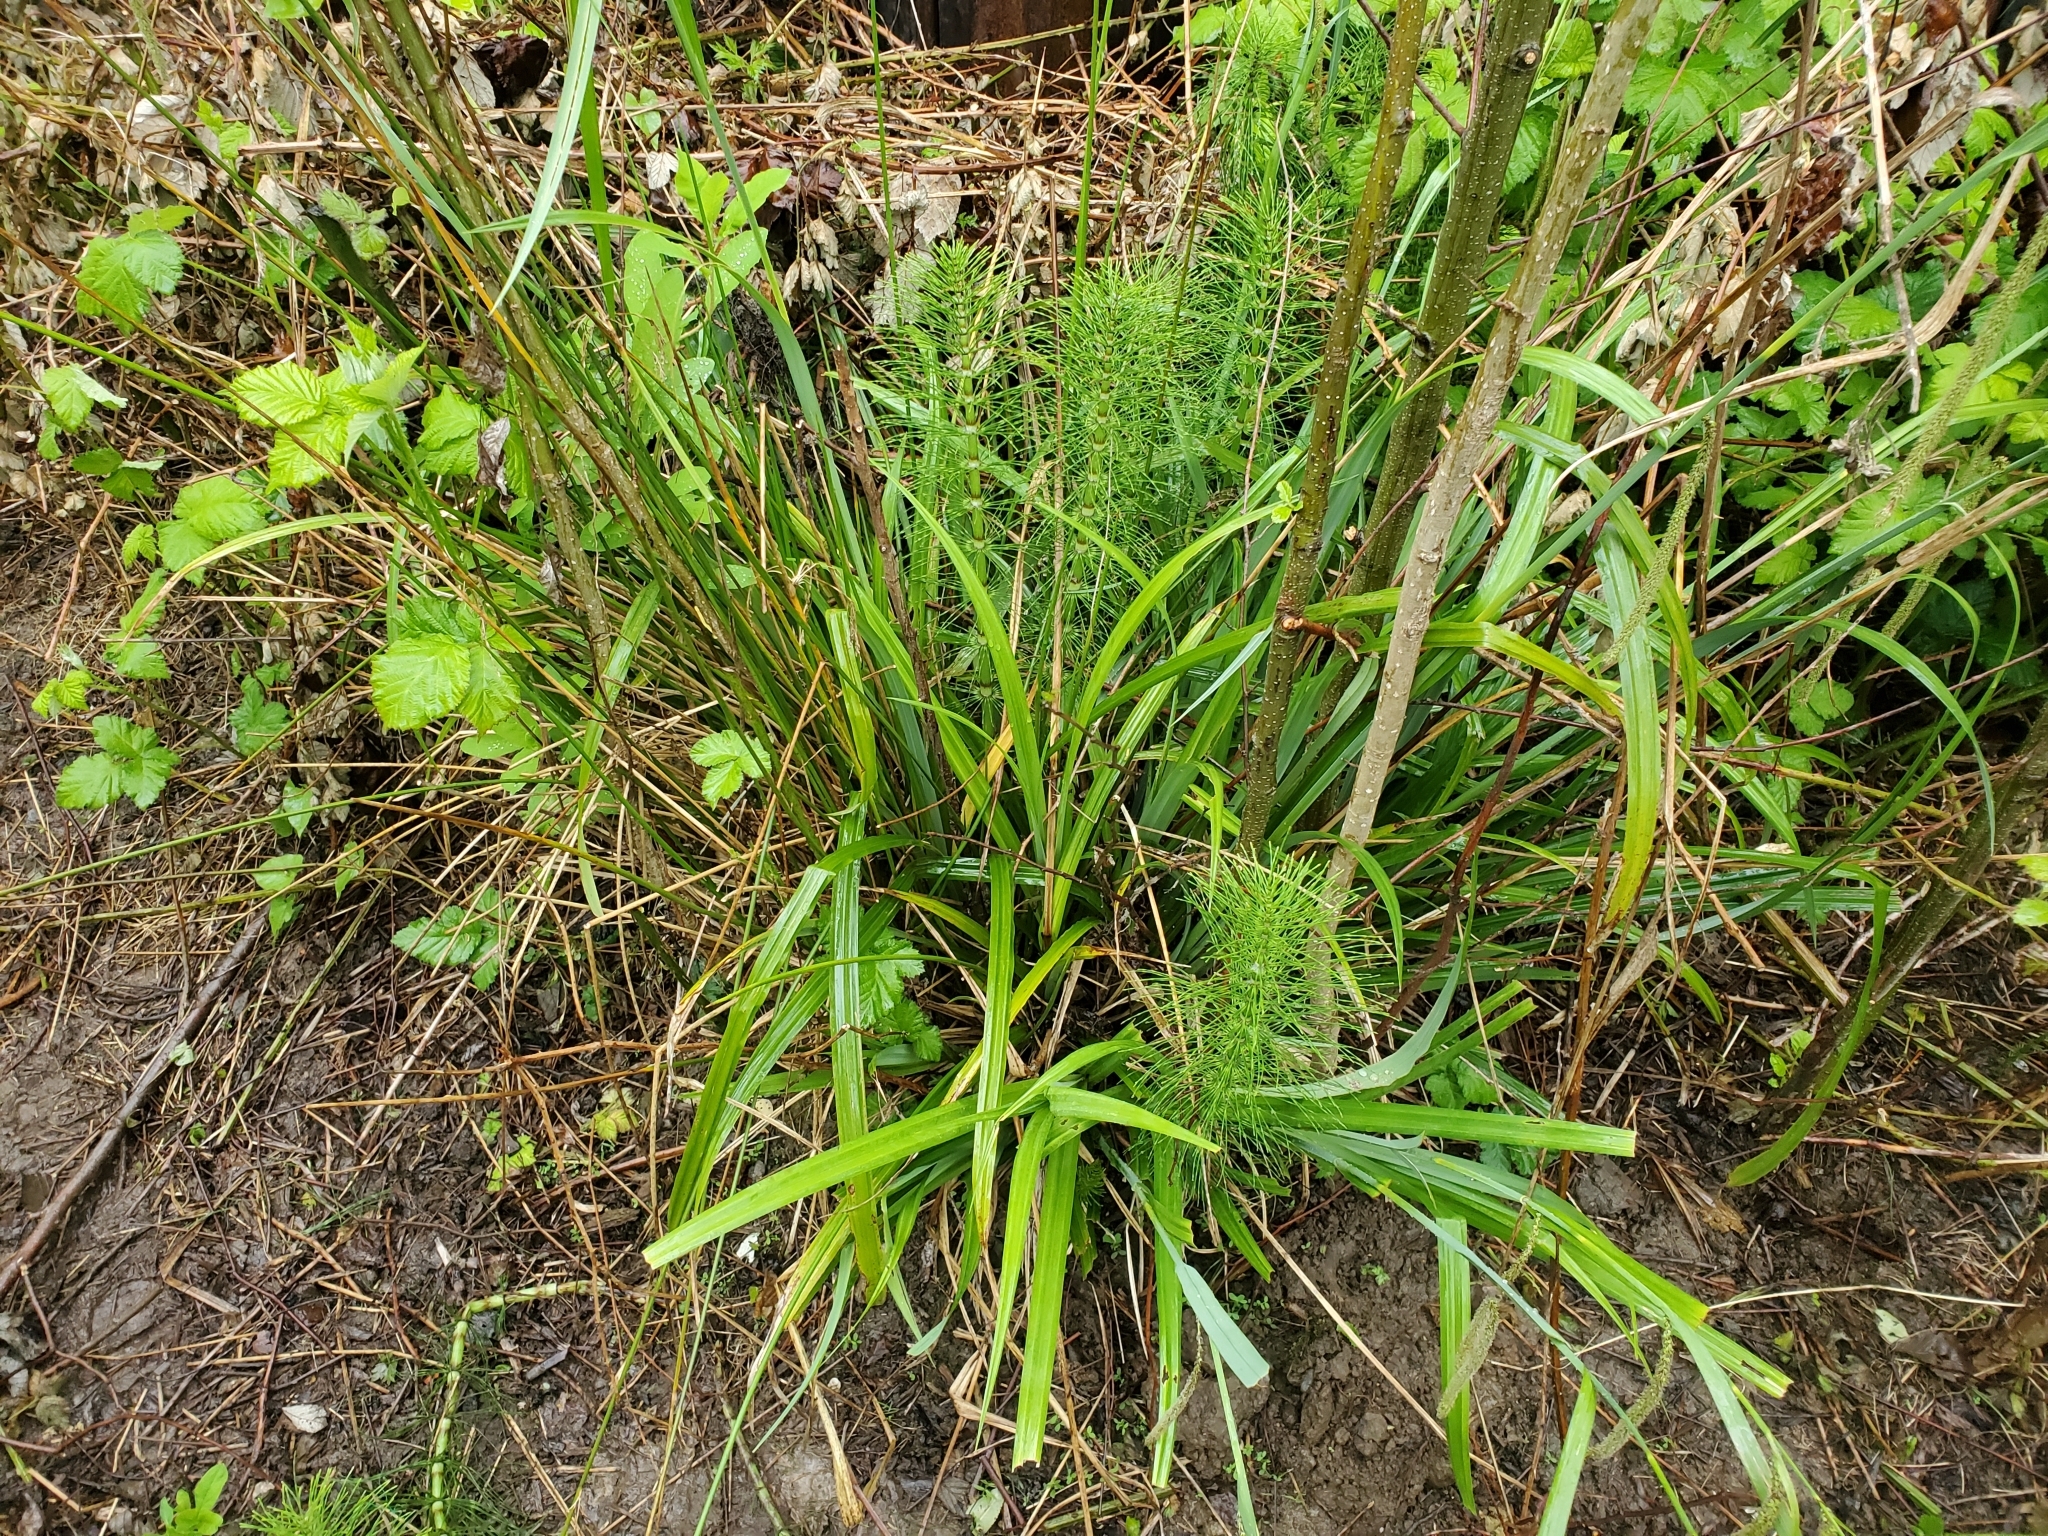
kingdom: Plantae
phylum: Tracheophyta
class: Liliopsida
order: Poales
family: Cyperaceae
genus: Carex
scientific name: Carex pendula
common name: Pendulous sedge
